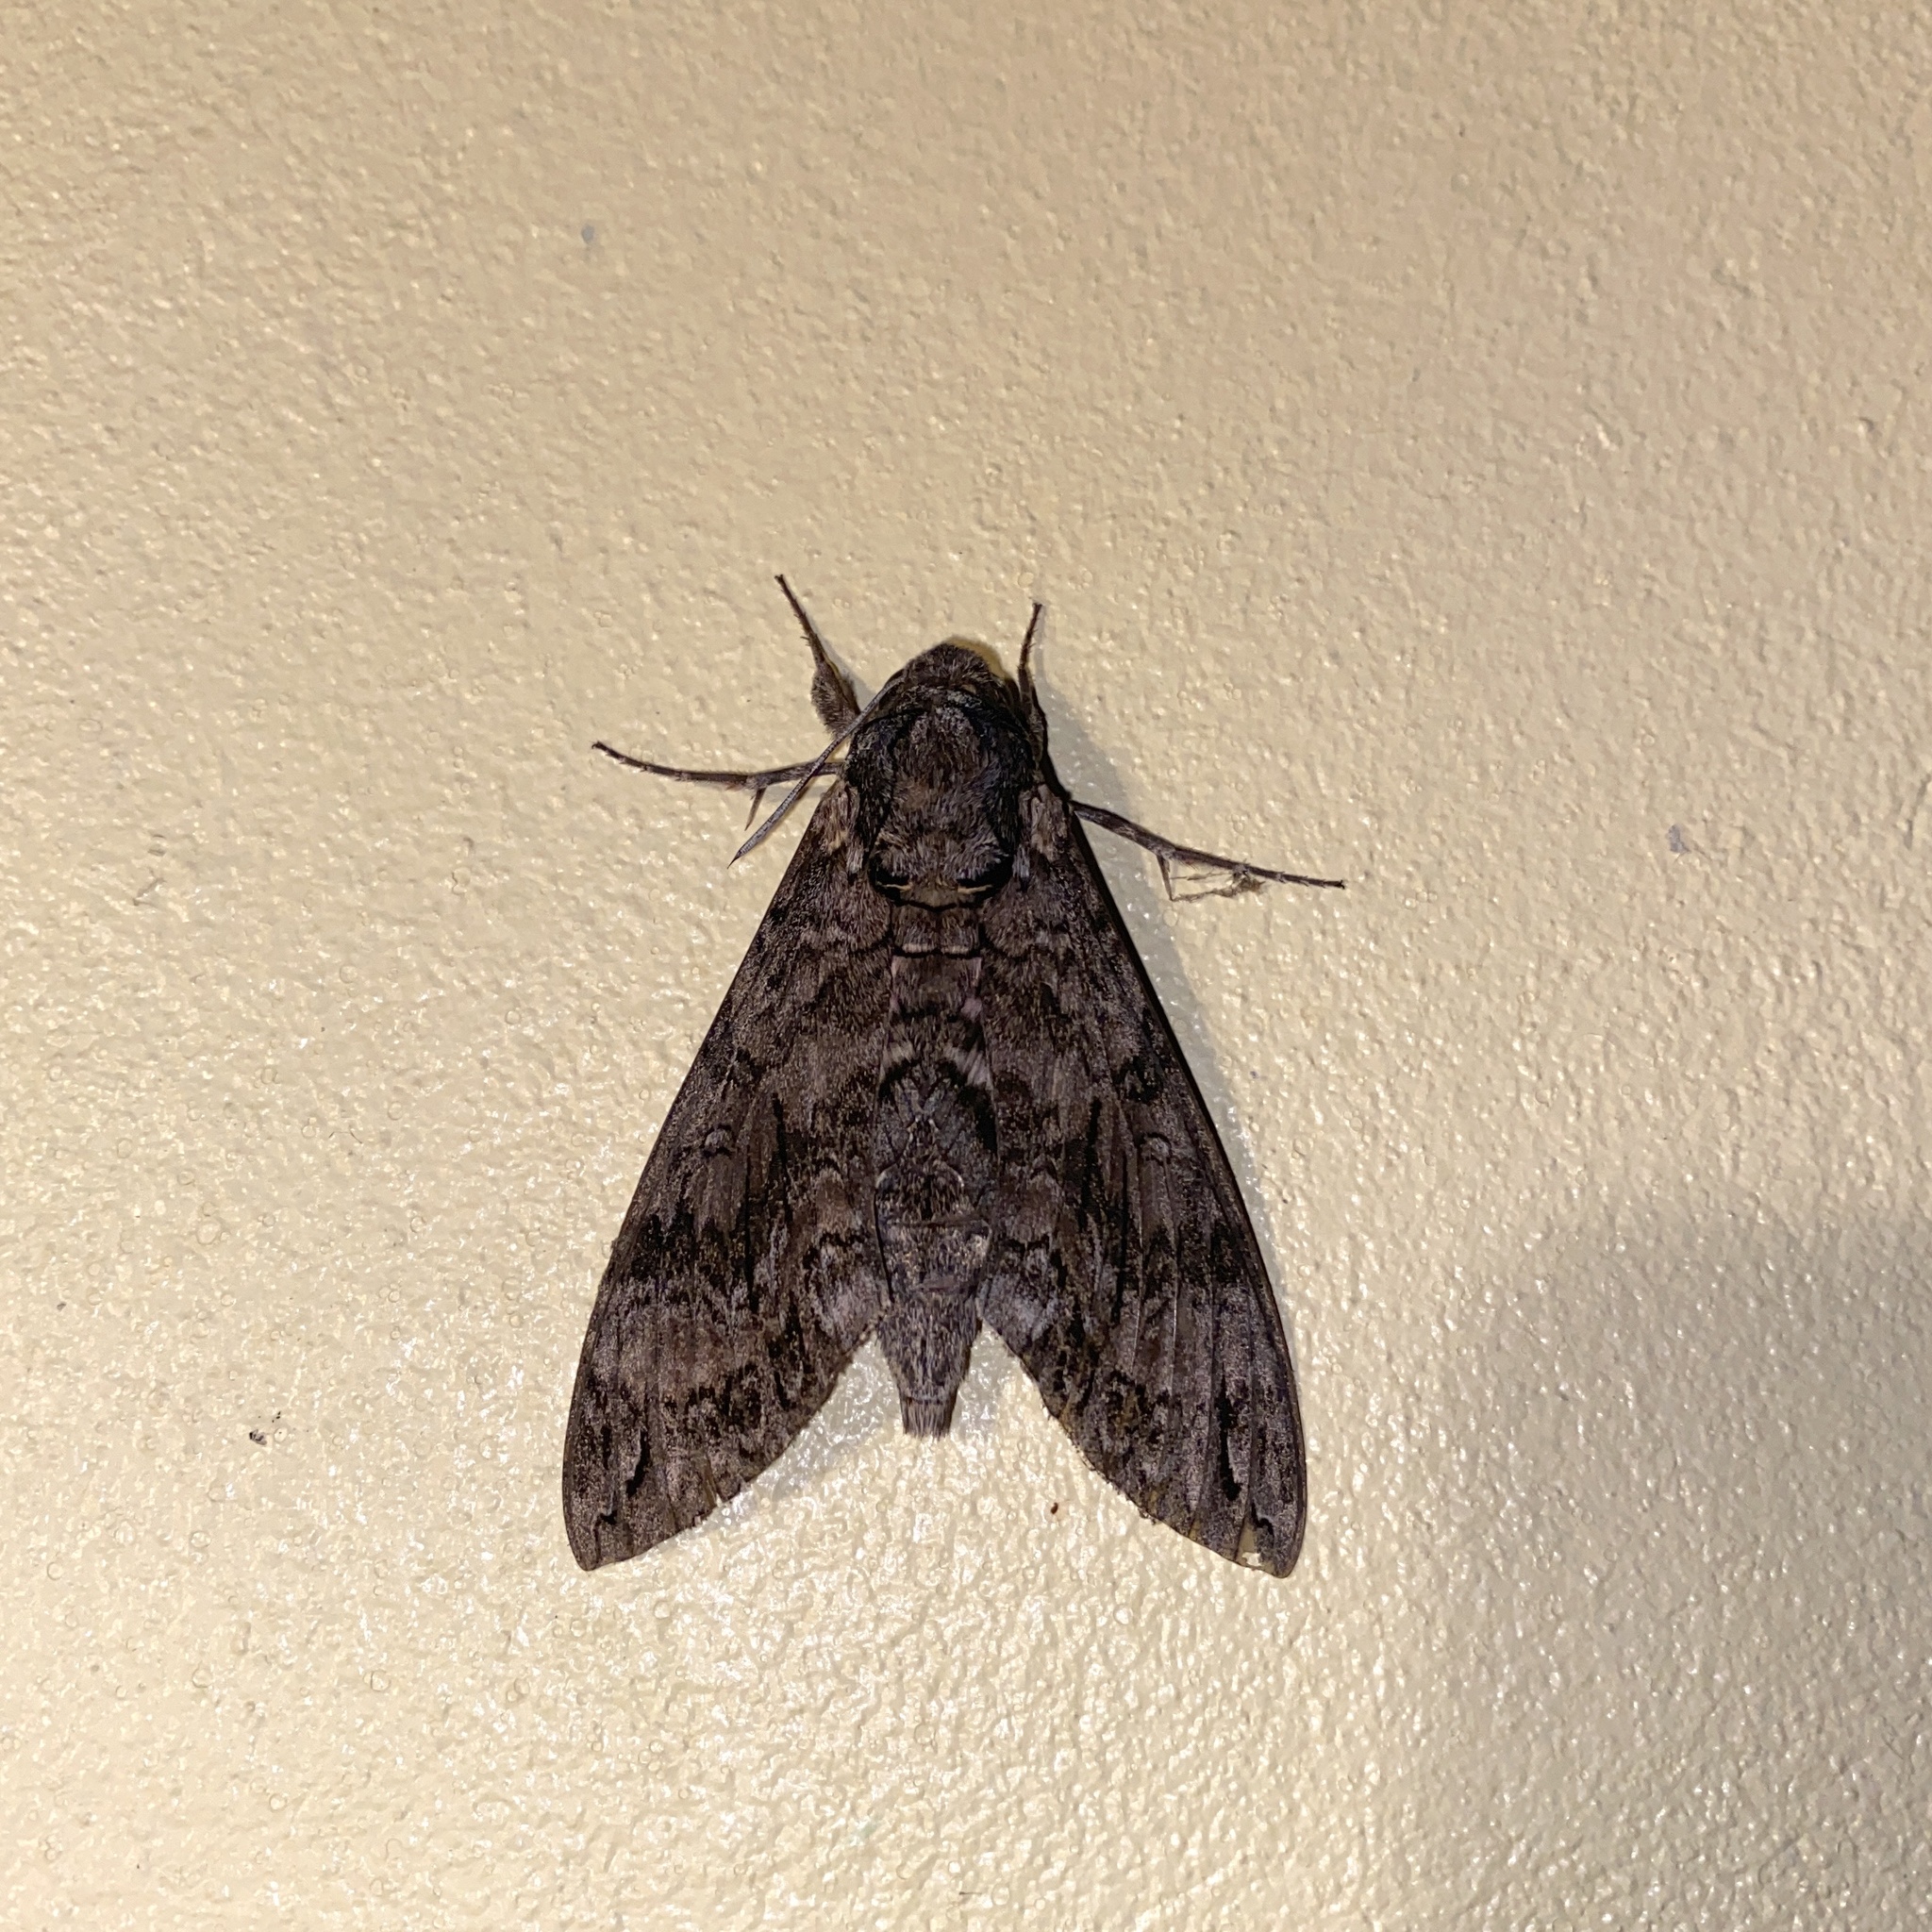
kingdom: Animalia
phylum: Arthropoda
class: Insecta
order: Lepidoptera
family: Sphingidae
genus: Agrius
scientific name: Agrius cingulata
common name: Pink-spotted hawkmoth
